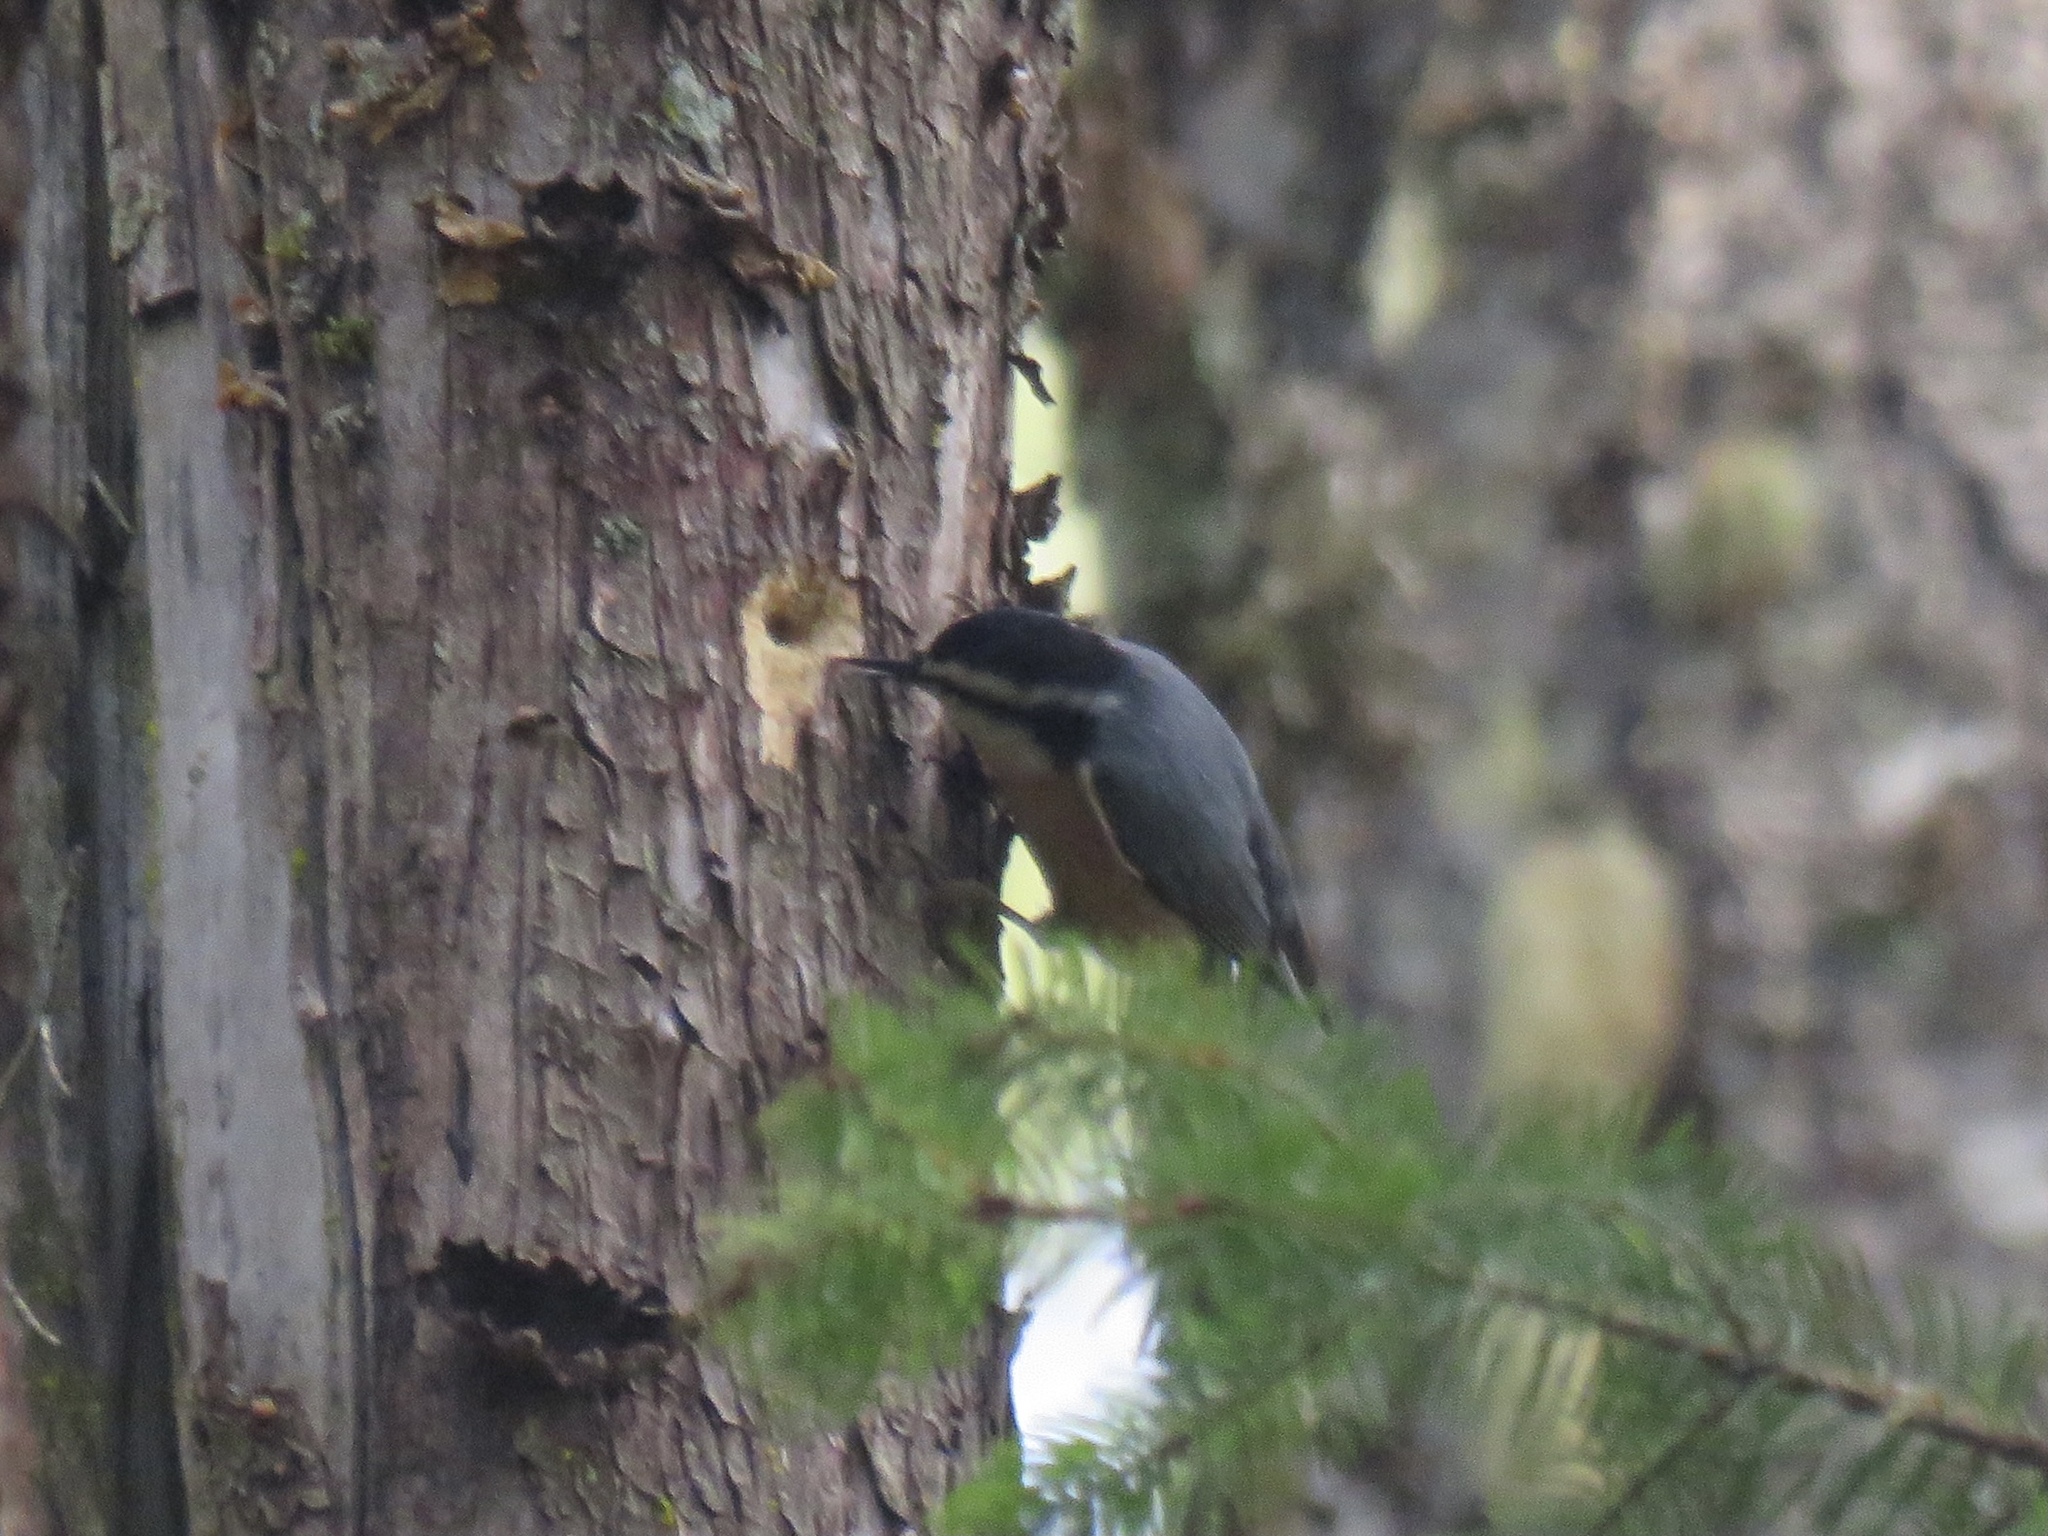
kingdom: Animalia
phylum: Chordata
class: Aves
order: Passeriformes
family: Sittidae
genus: Sitta
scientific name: Sitta canadensis
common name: Red-breasted nuthatch
